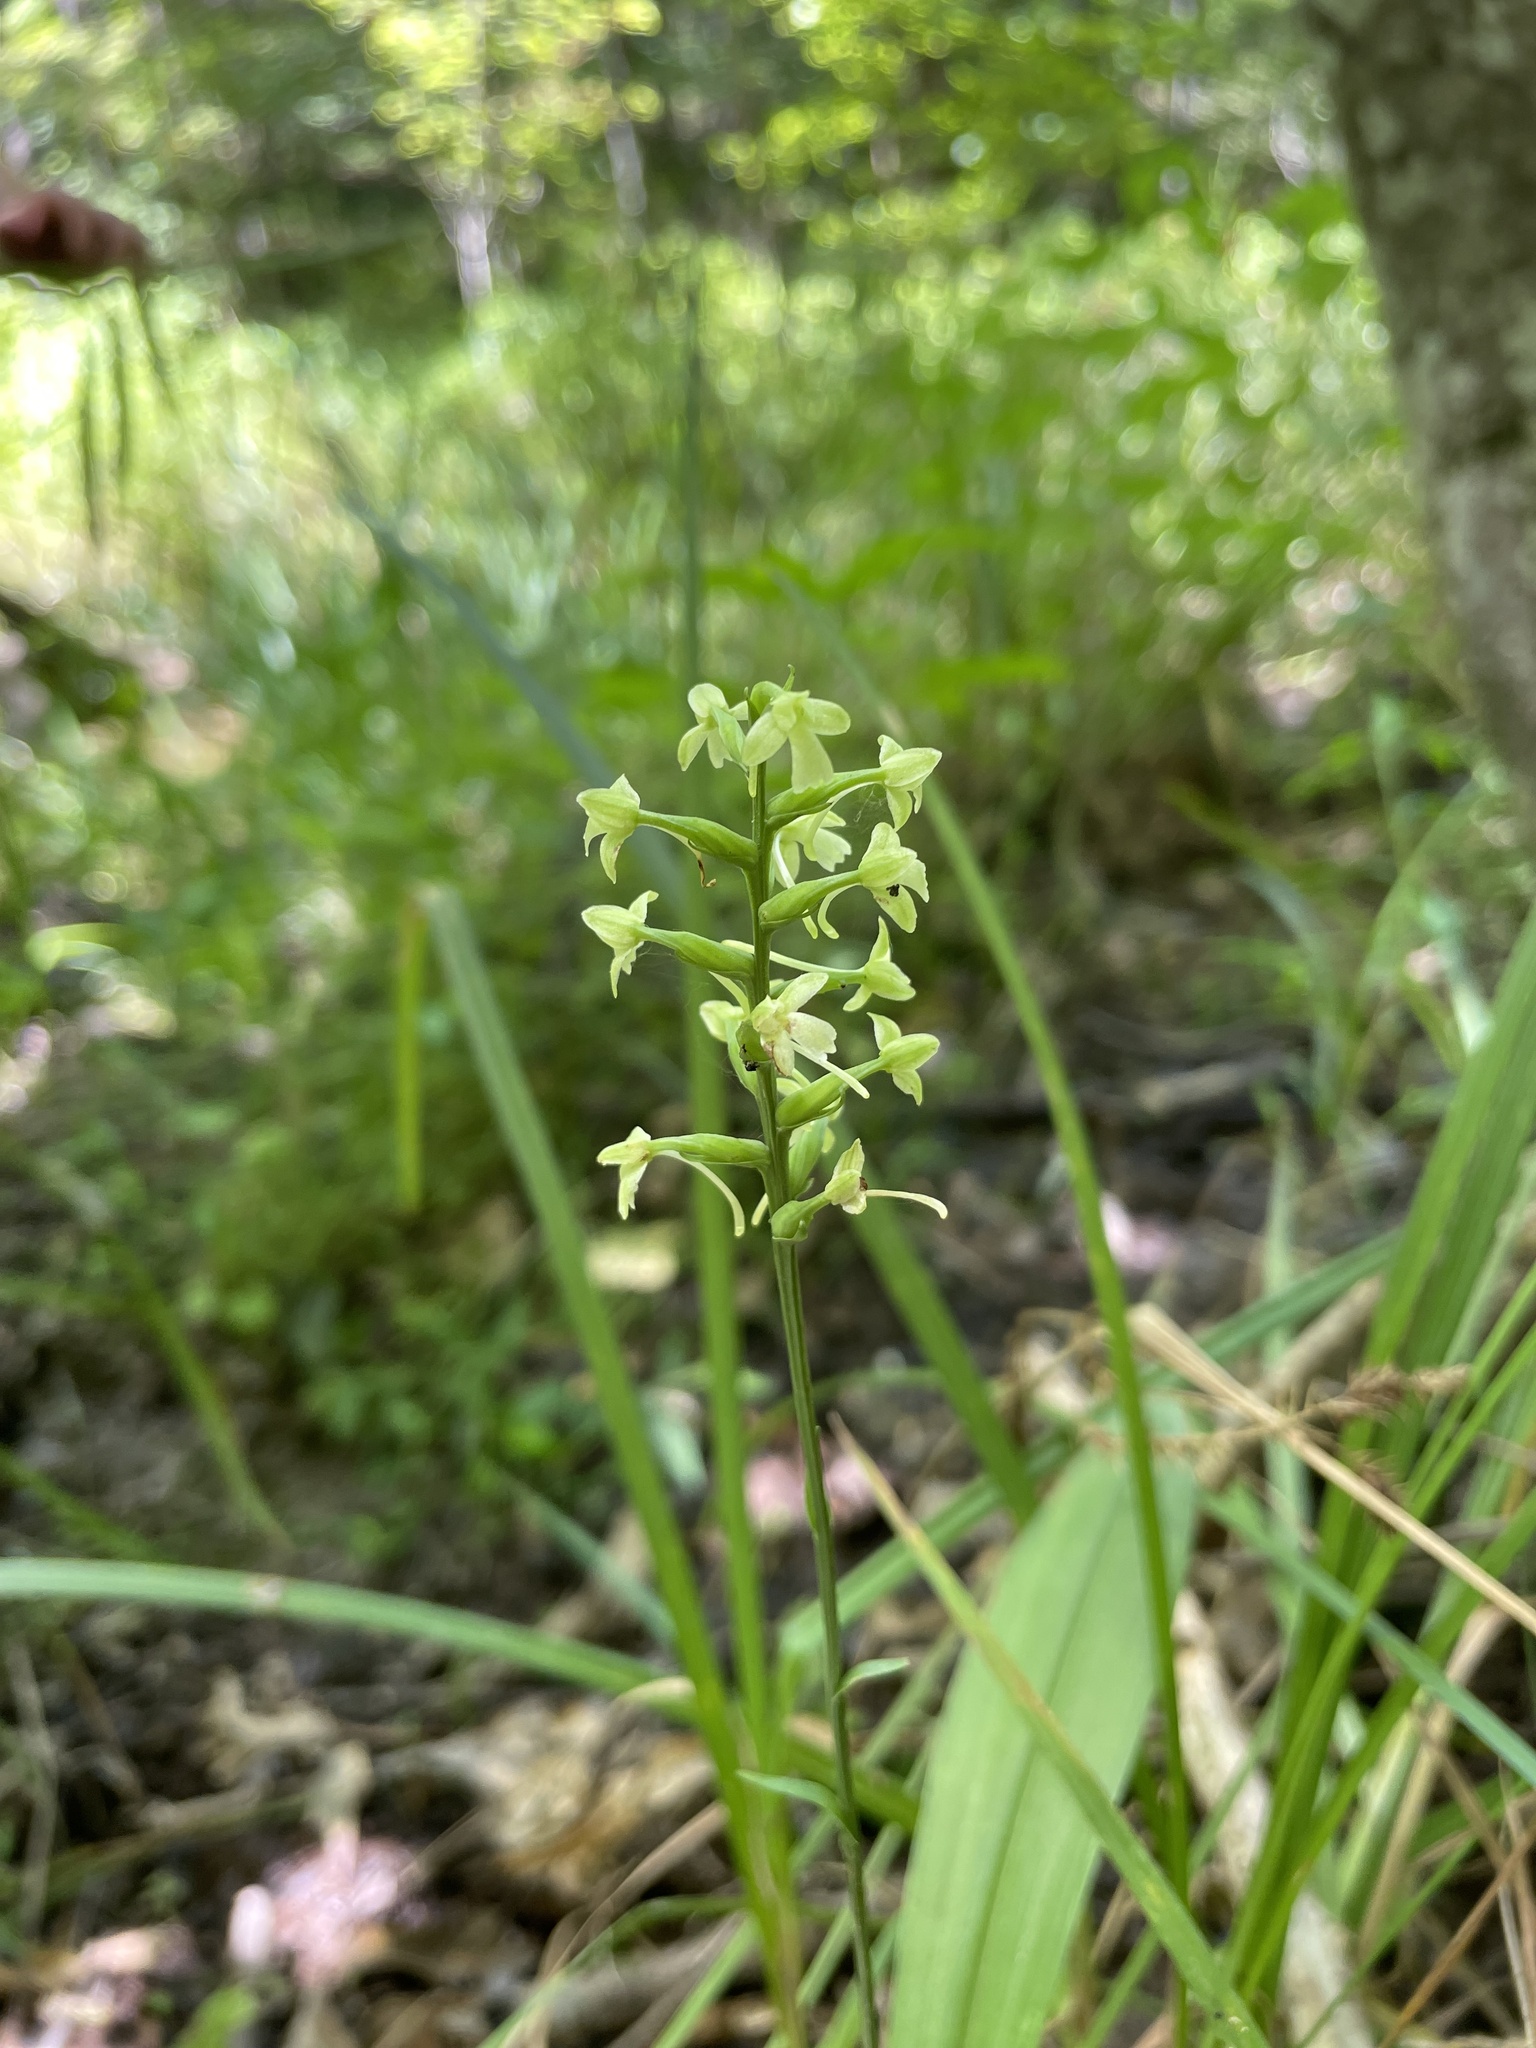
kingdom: Plantae
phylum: Tracheophyta
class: Liliopsida
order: Asparagales
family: Orchidaceae
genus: Platanthera
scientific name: Platanthera clavellata
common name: Club-spur orchid
